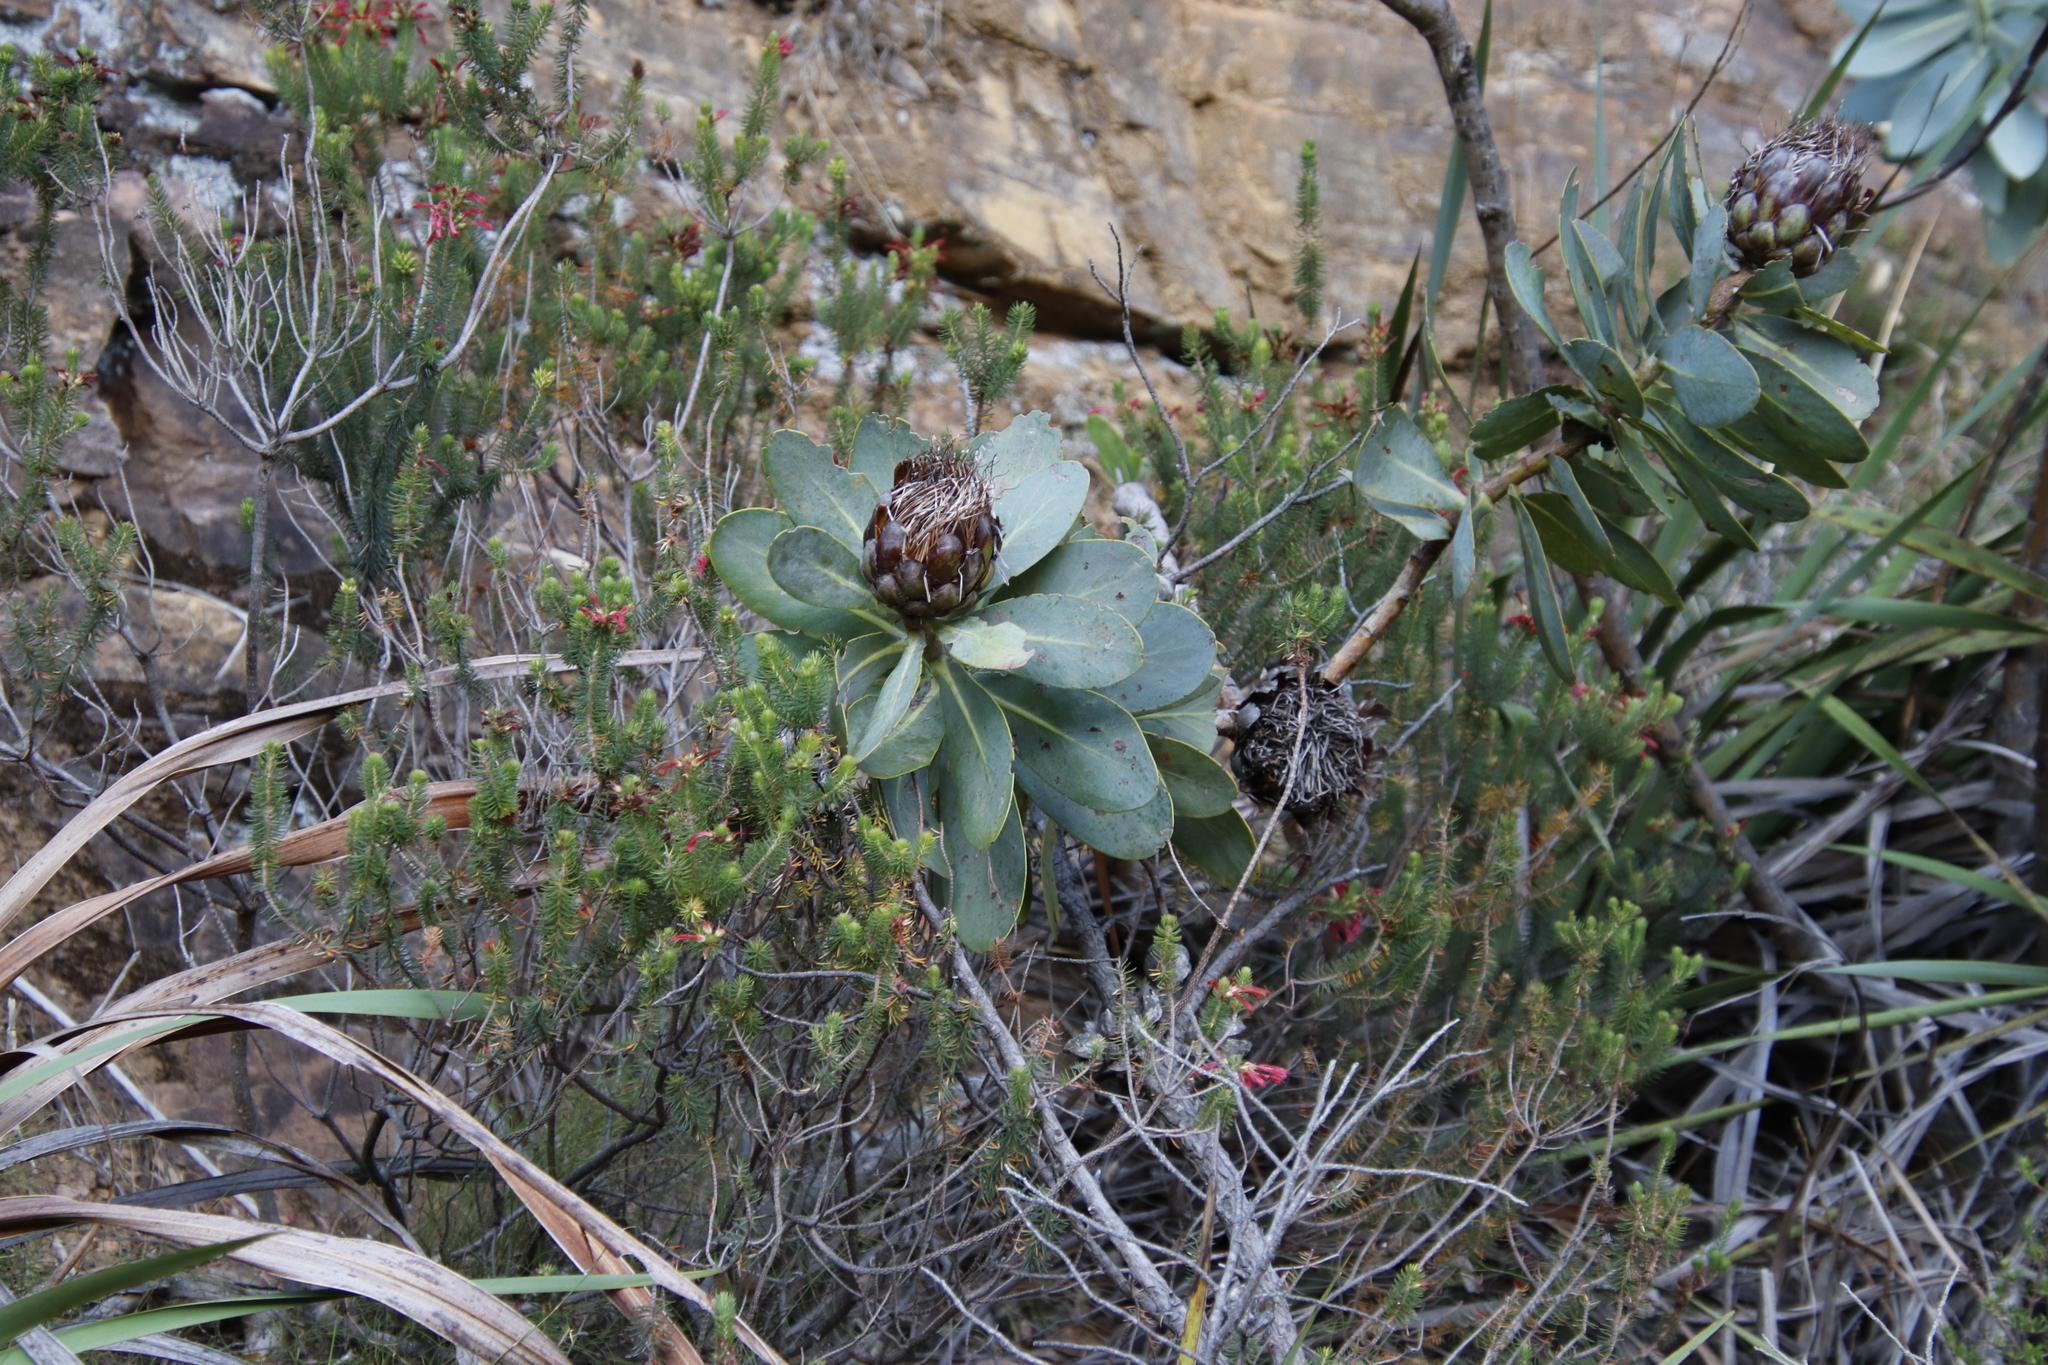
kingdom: Plantae
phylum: Tracheophyta
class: Magnoliopsida
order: Proteales
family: Proteaceae
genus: Protea
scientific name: Protea nitida
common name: Tree protea
